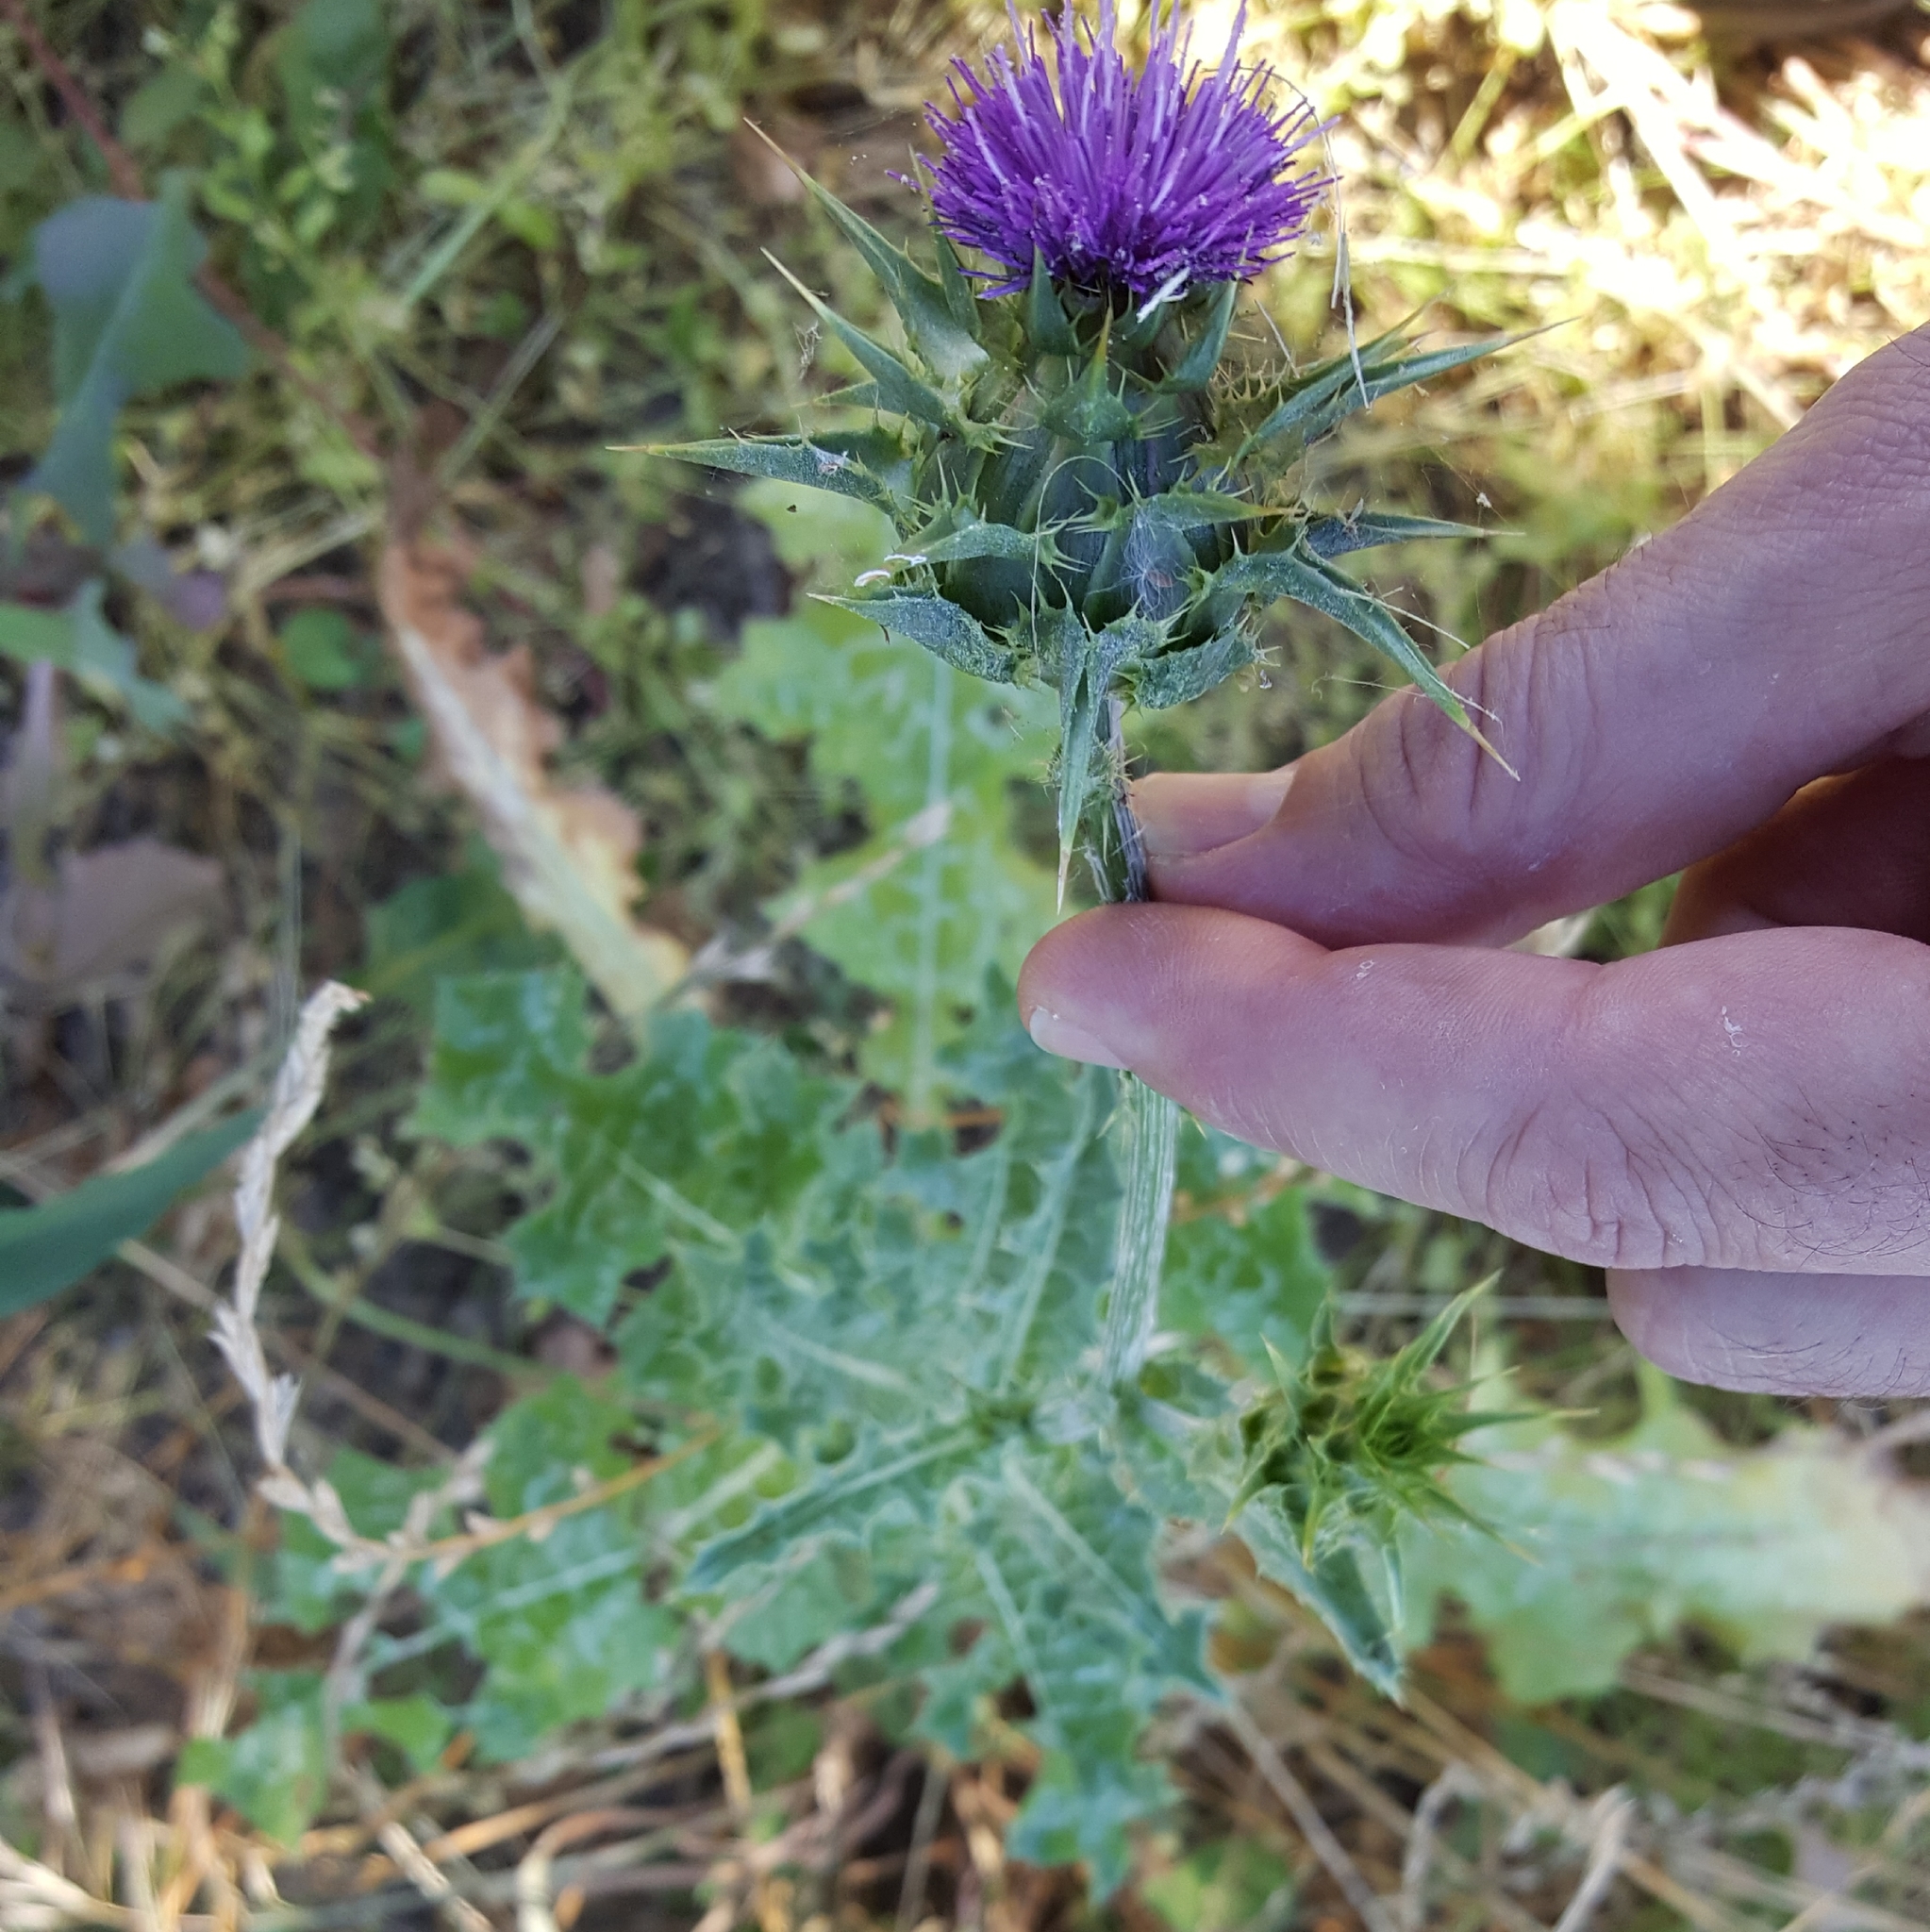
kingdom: Plantae
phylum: Tracheophyta
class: Magnoliopsida
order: Asterales
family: Asteraceae
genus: Silybum
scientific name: Silybum marianum
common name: Milk thistle
